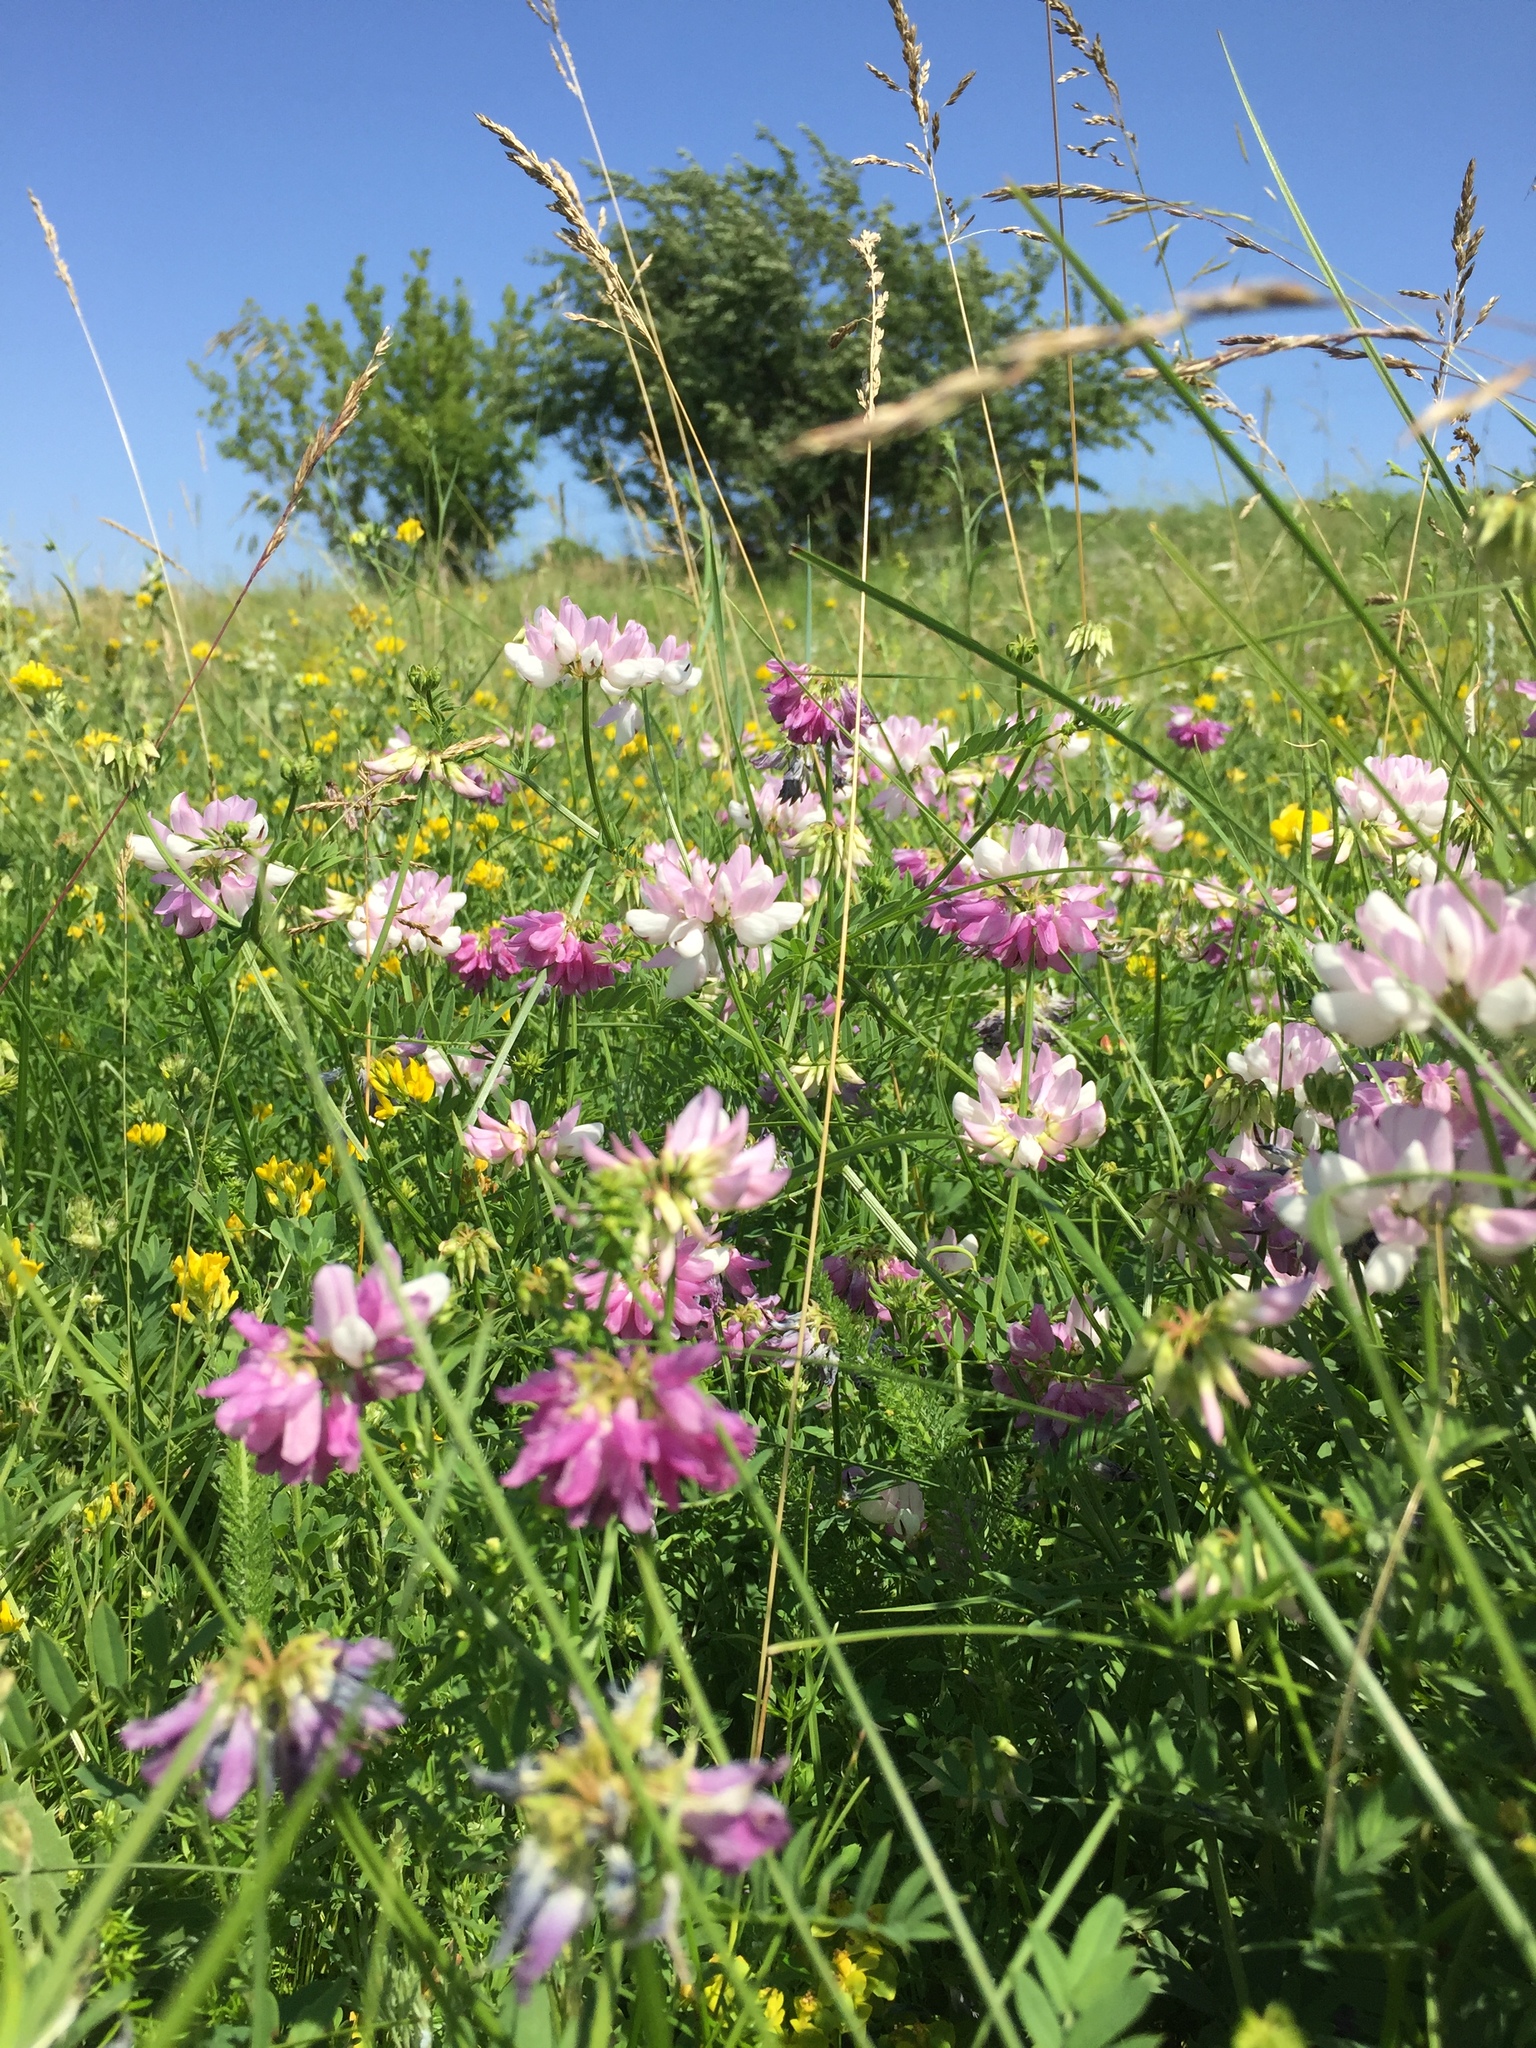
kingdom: Plantae
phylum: Tracheophyta
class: Magnoliopsida
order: Fabales
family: Fabaceae
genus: Coronilla
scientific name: Coronilla varia
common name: Crownvetch
